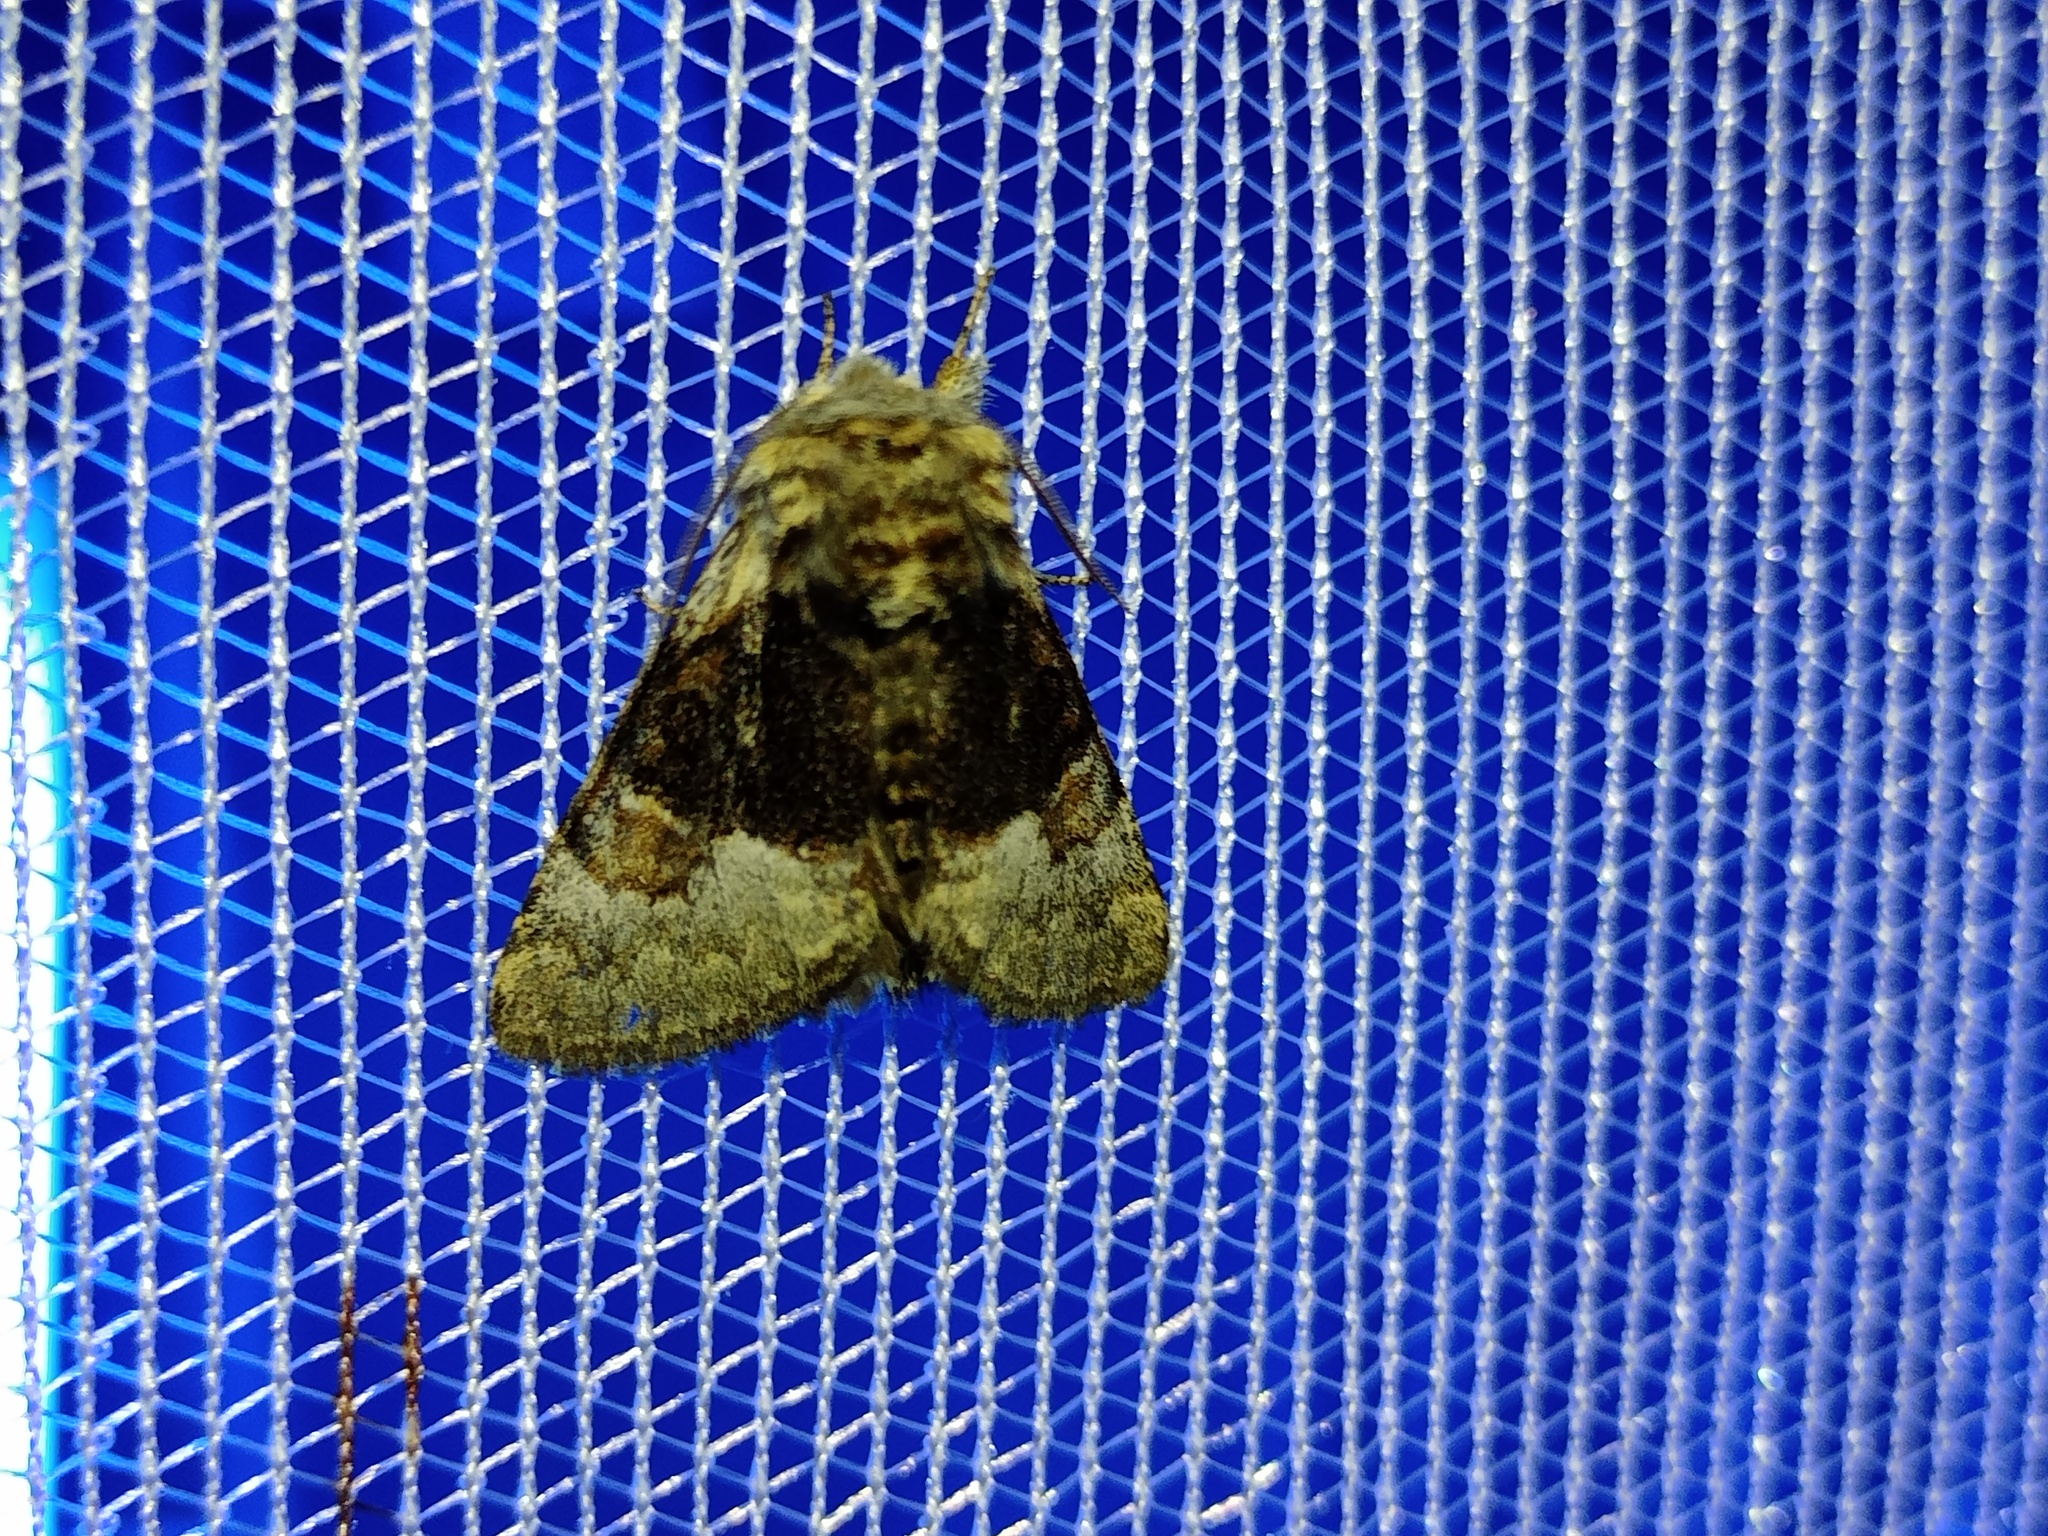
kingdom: Animalia
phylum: Arthropoda
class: Insecta
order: Lepidoptera
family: Noctuidae
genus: Colocasia
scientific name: Colocasia coryli
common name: Nut-tree tussock
